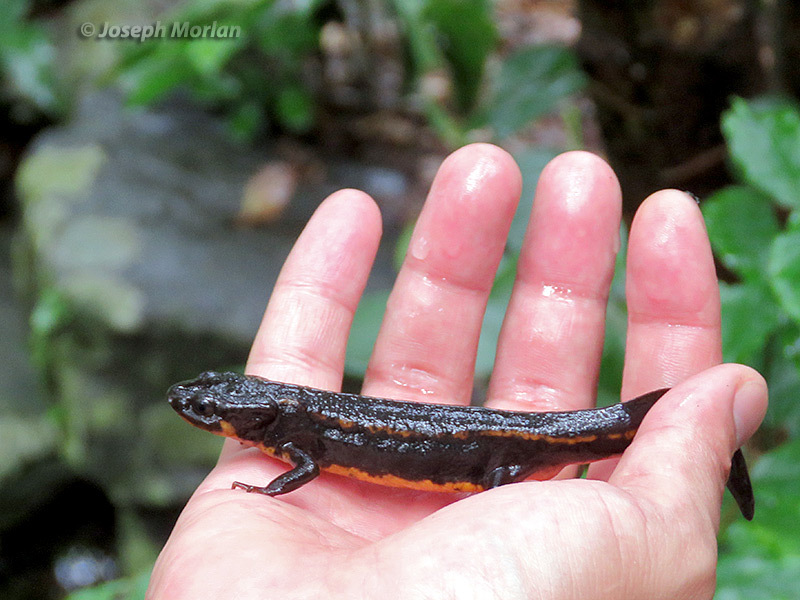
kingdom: Animalia
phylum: Chordata
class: Amphibia
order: Caudata
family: Salamandridae
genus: Cynops
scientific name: Cynops ensicauda
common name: Sword-tailed newt
